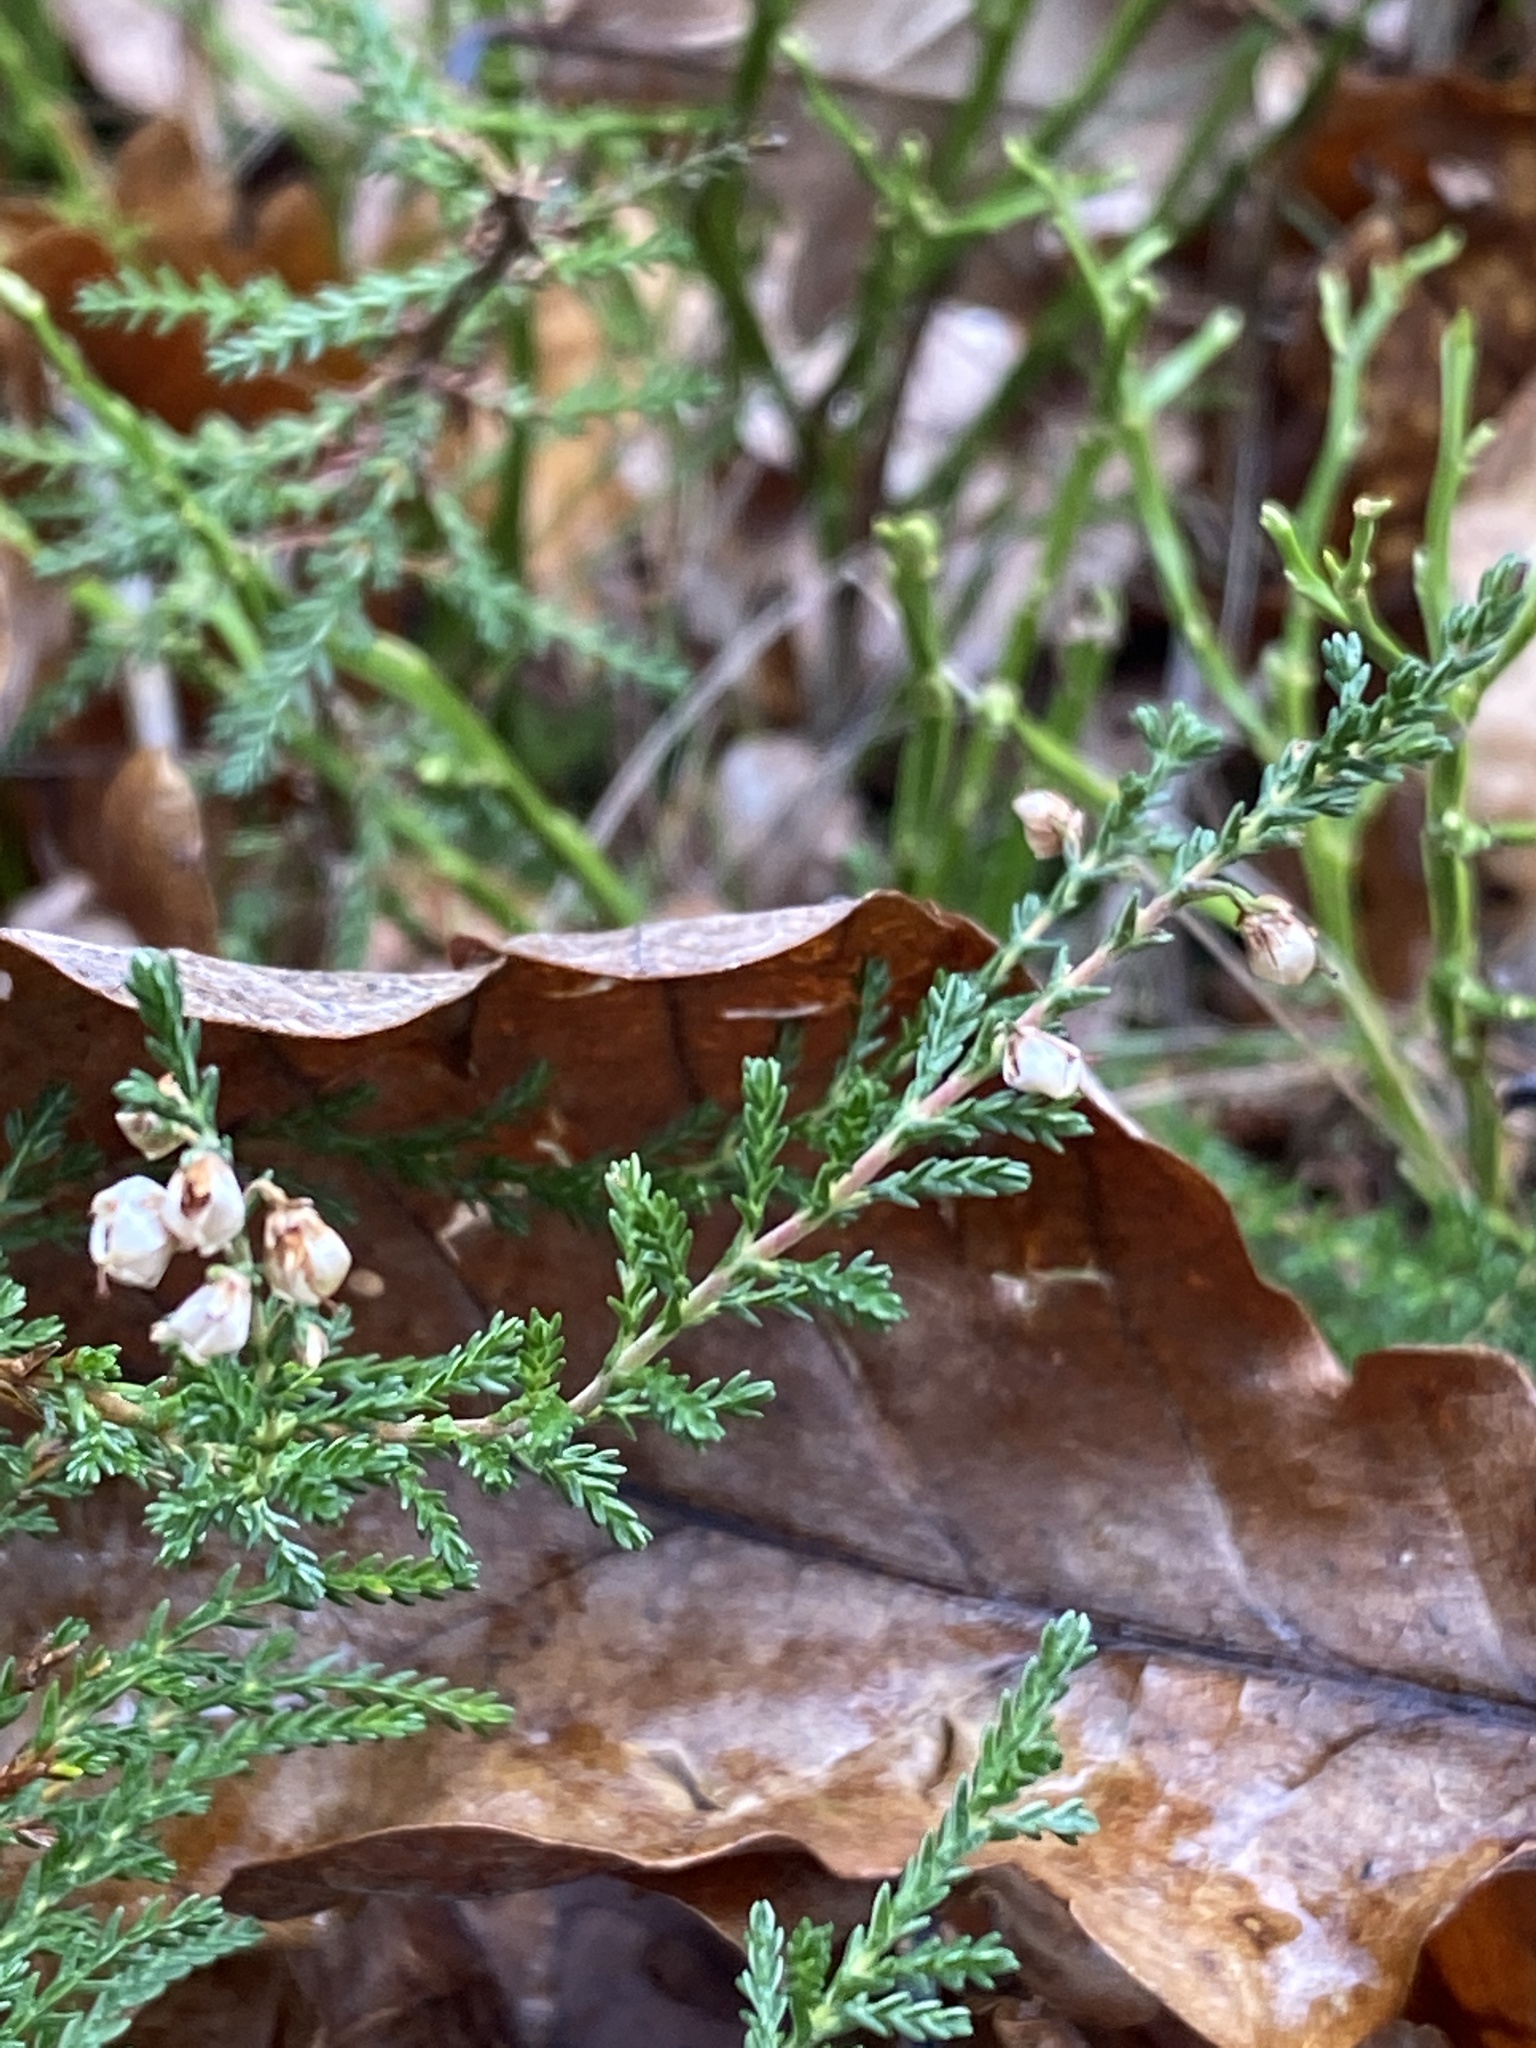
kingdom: Plantae
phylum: Tracheophyta
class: Magnoliopsida
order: Ericales
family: Ericaceae
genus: Calluna
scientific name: Calluna vulgaris
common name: Heather
